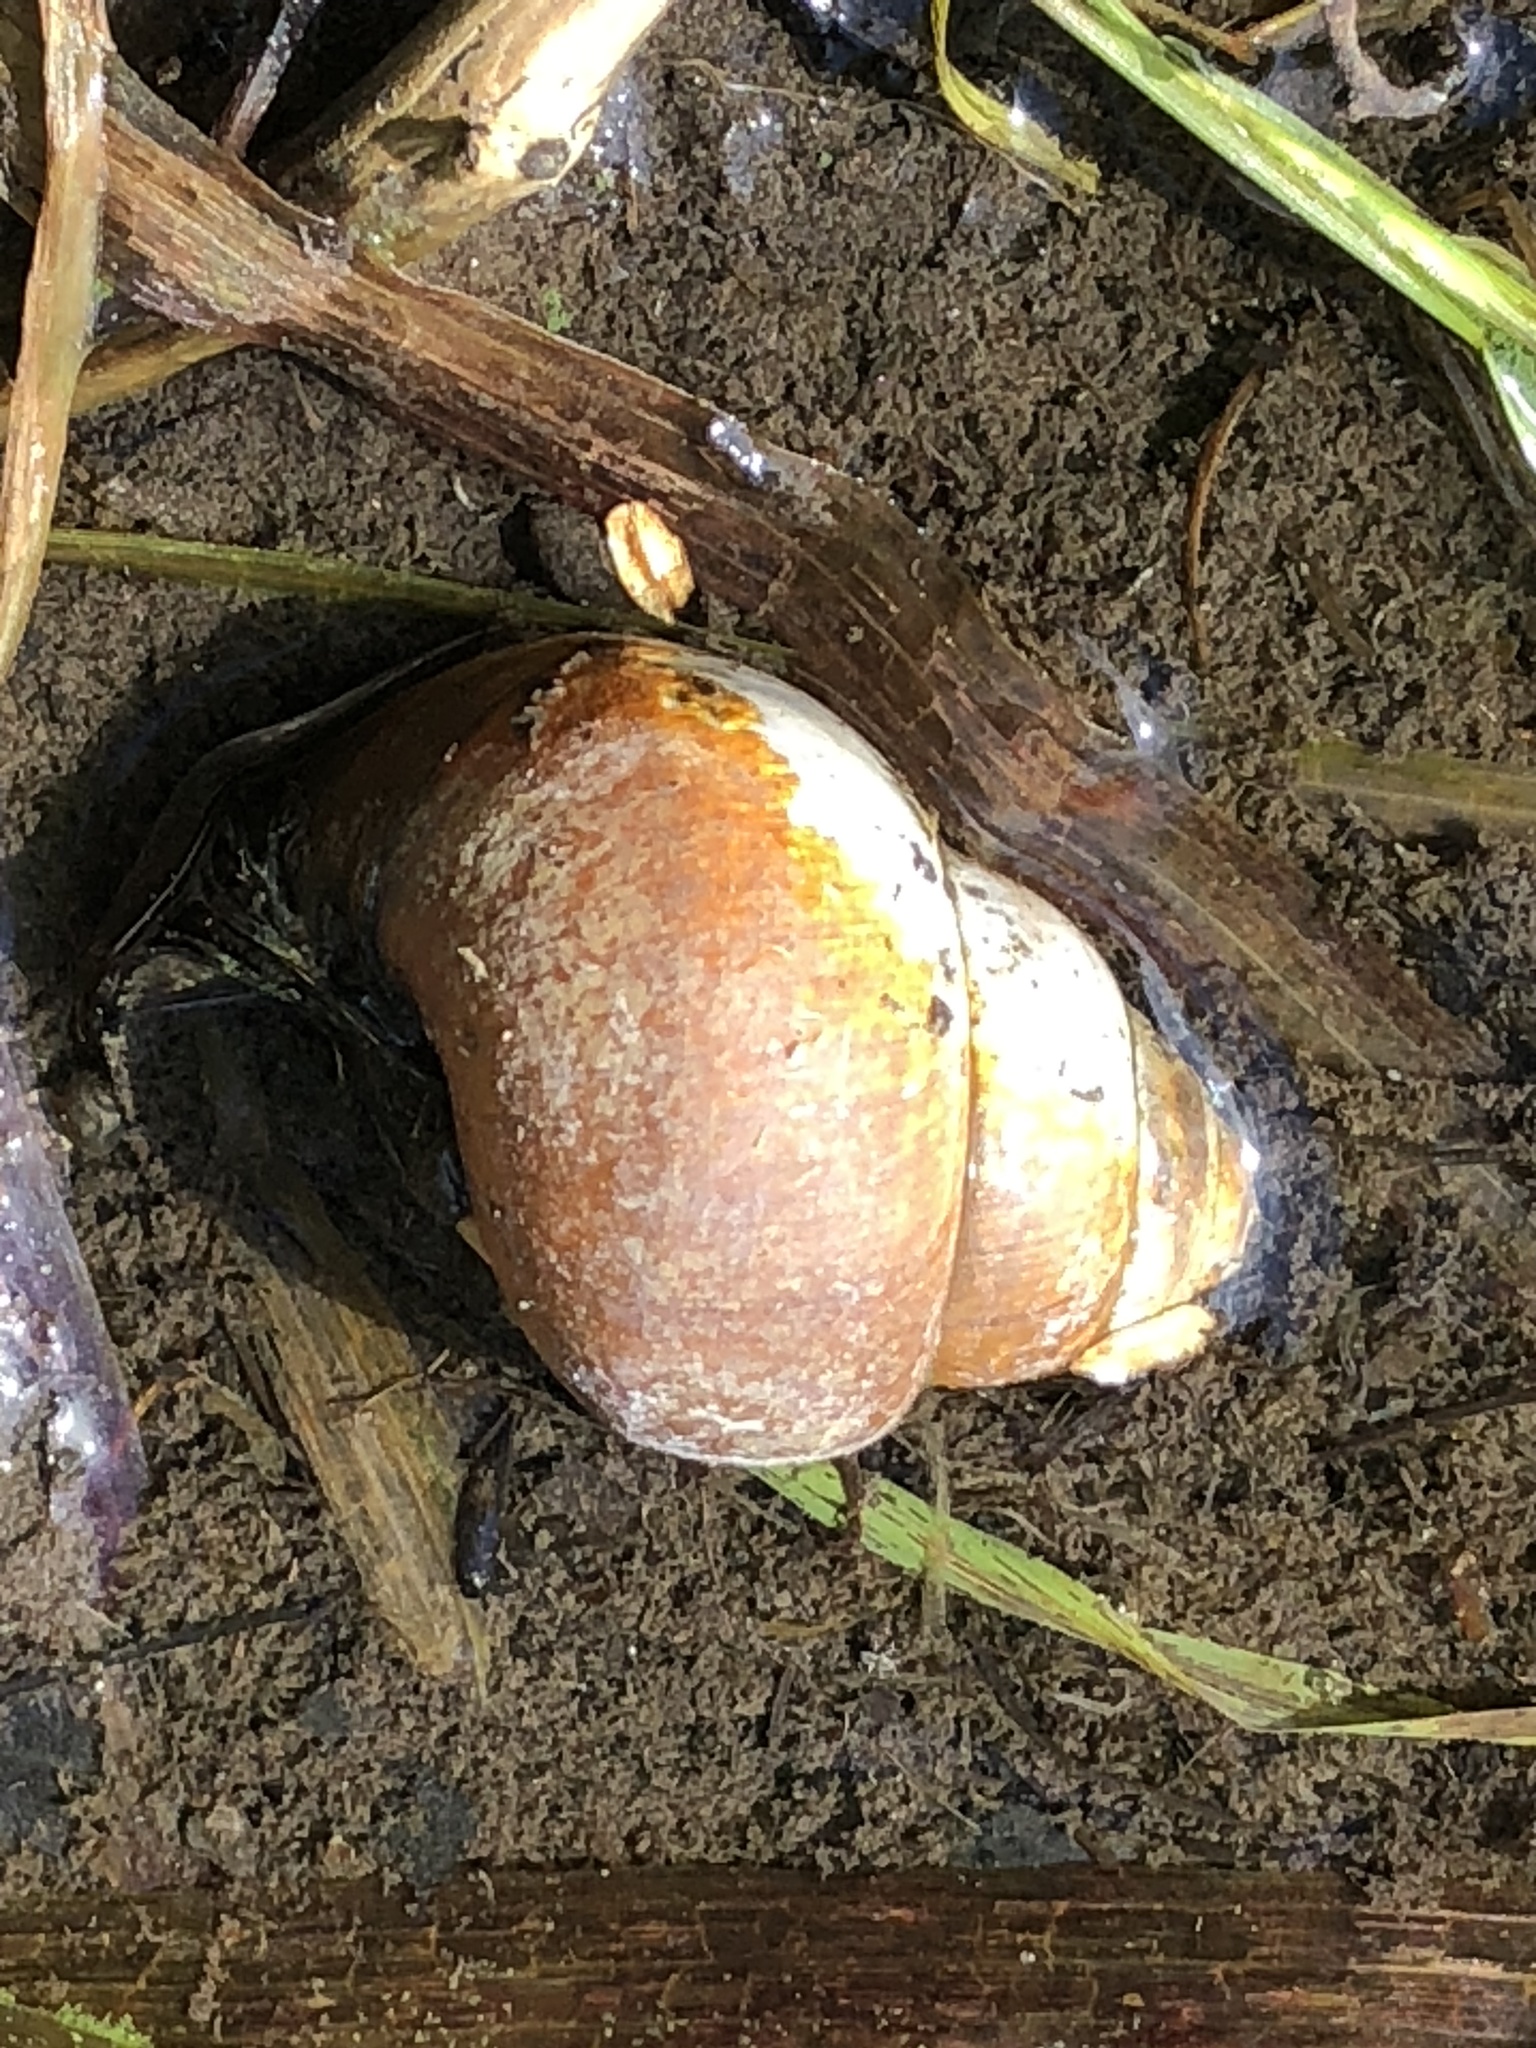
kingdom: Animalia
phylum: Mollusca
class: Gastropoda
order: Architaenioglossa
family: Viviparidae
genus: Cipangopaludina
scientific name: Cipangopaludina chinensis
